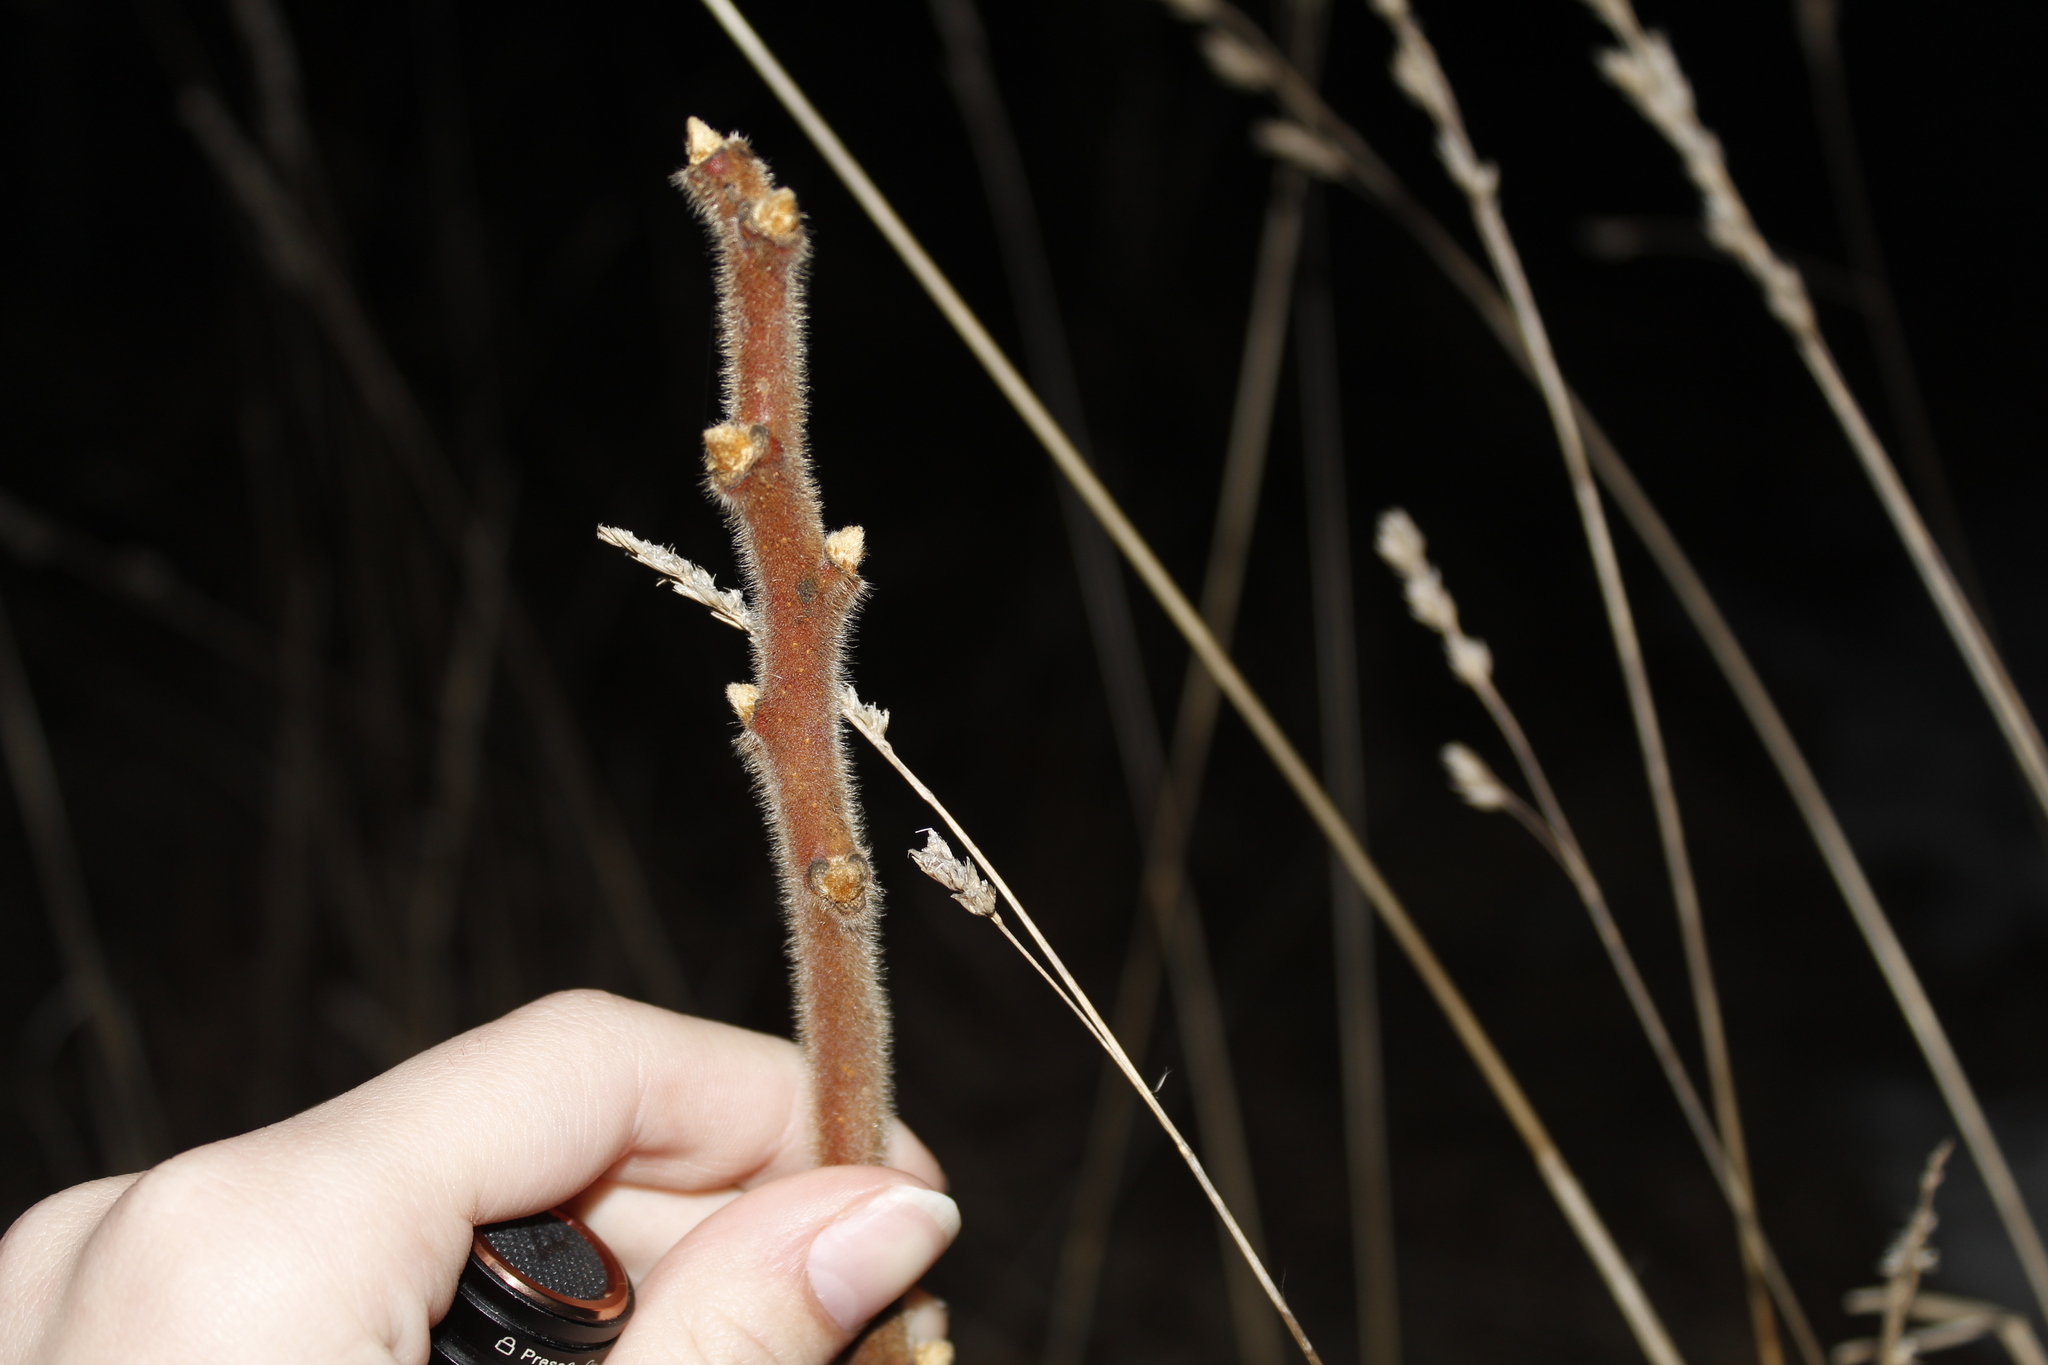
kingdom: Plantae
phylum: Tracheophyta
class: Magnoliopsida
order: Sapindales
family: Anacardiaceae
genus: Rhus
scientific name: Rhus typhina
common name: Staghorn sumac
